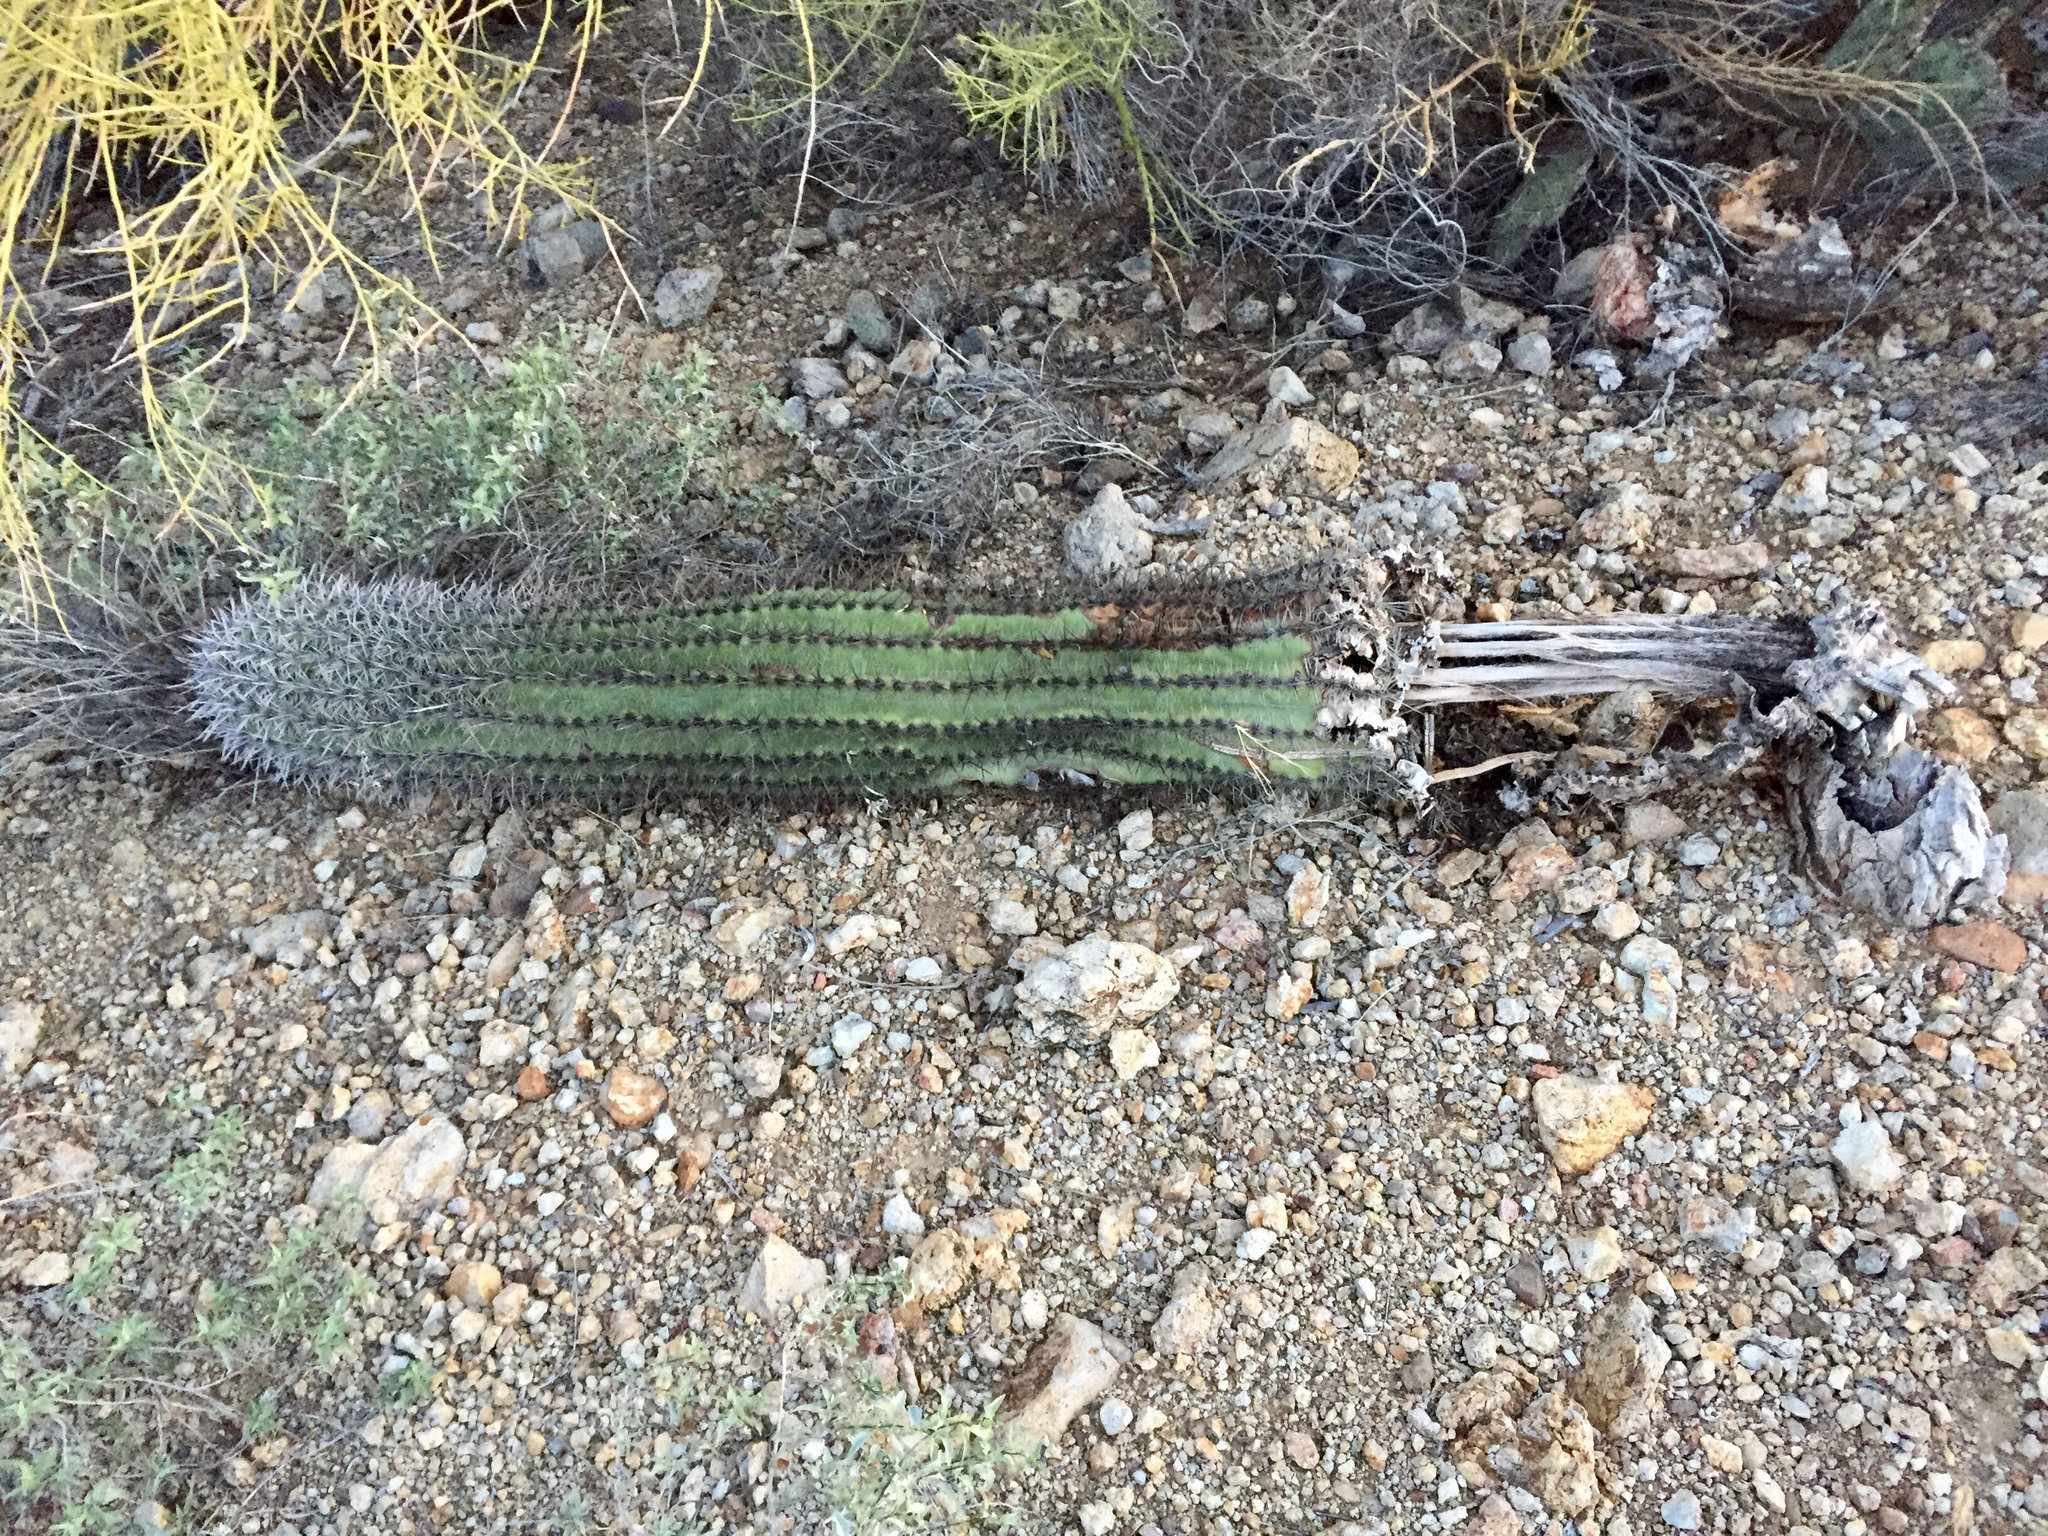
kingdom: Plantae
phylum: Tracheophyta
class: Magnoliopsida
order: Caryophyllales
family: Cactaceae
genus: Carnegiea
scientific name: Carnegiea gigantea
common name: Saguaro
